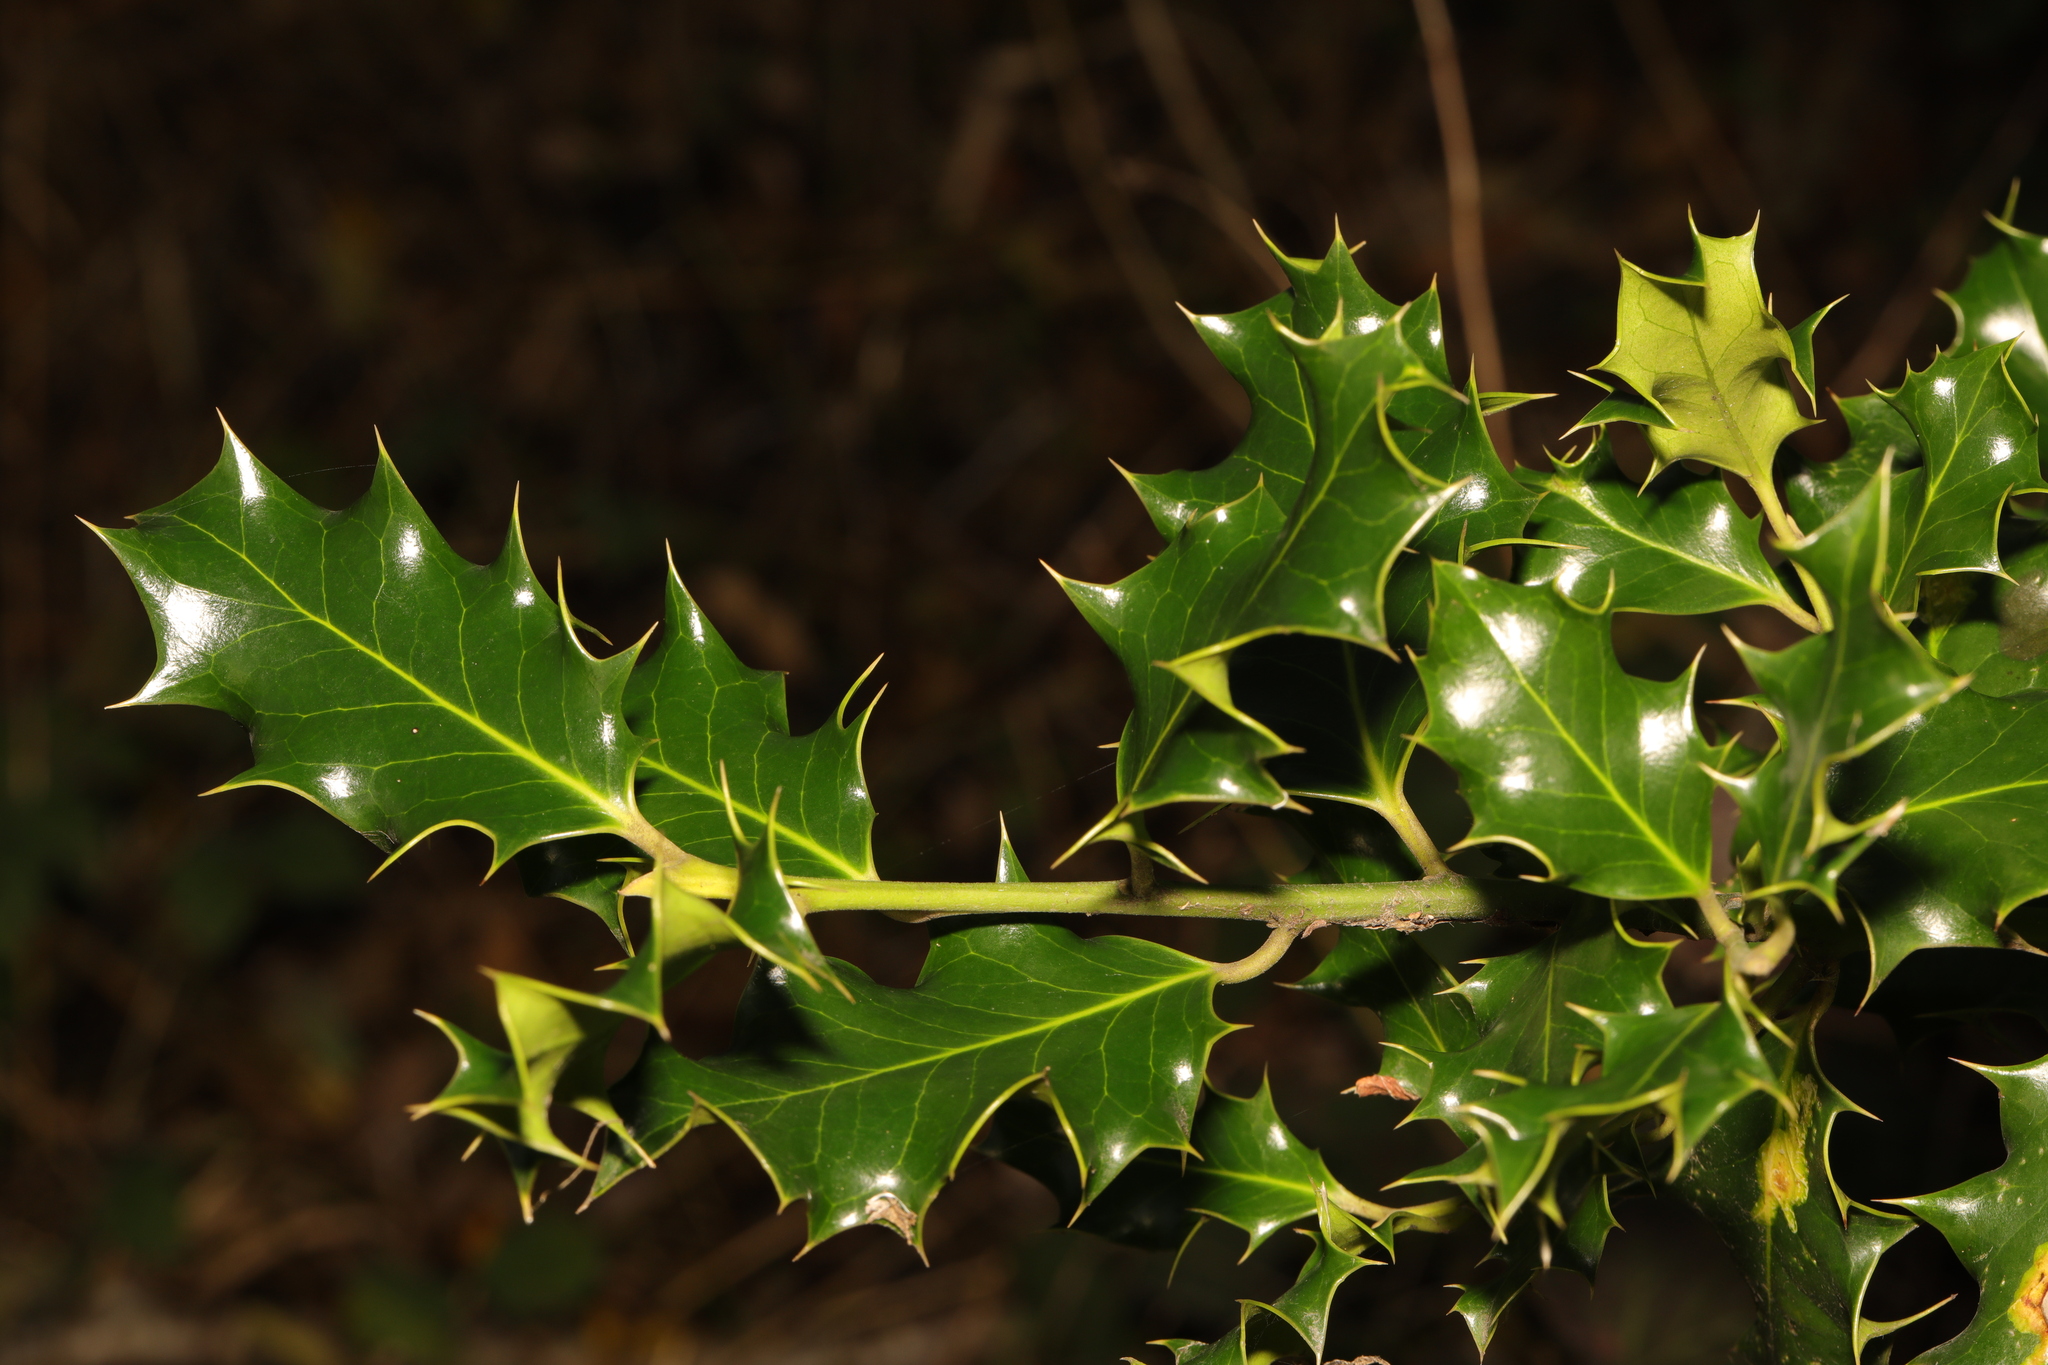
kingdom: Plantae
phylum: Tracheophyta
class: Magnoliopsida
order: Aquifoliales
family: Aquifoliaceae
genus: Ilex
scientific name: Ilex aquifolium
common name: English holly
